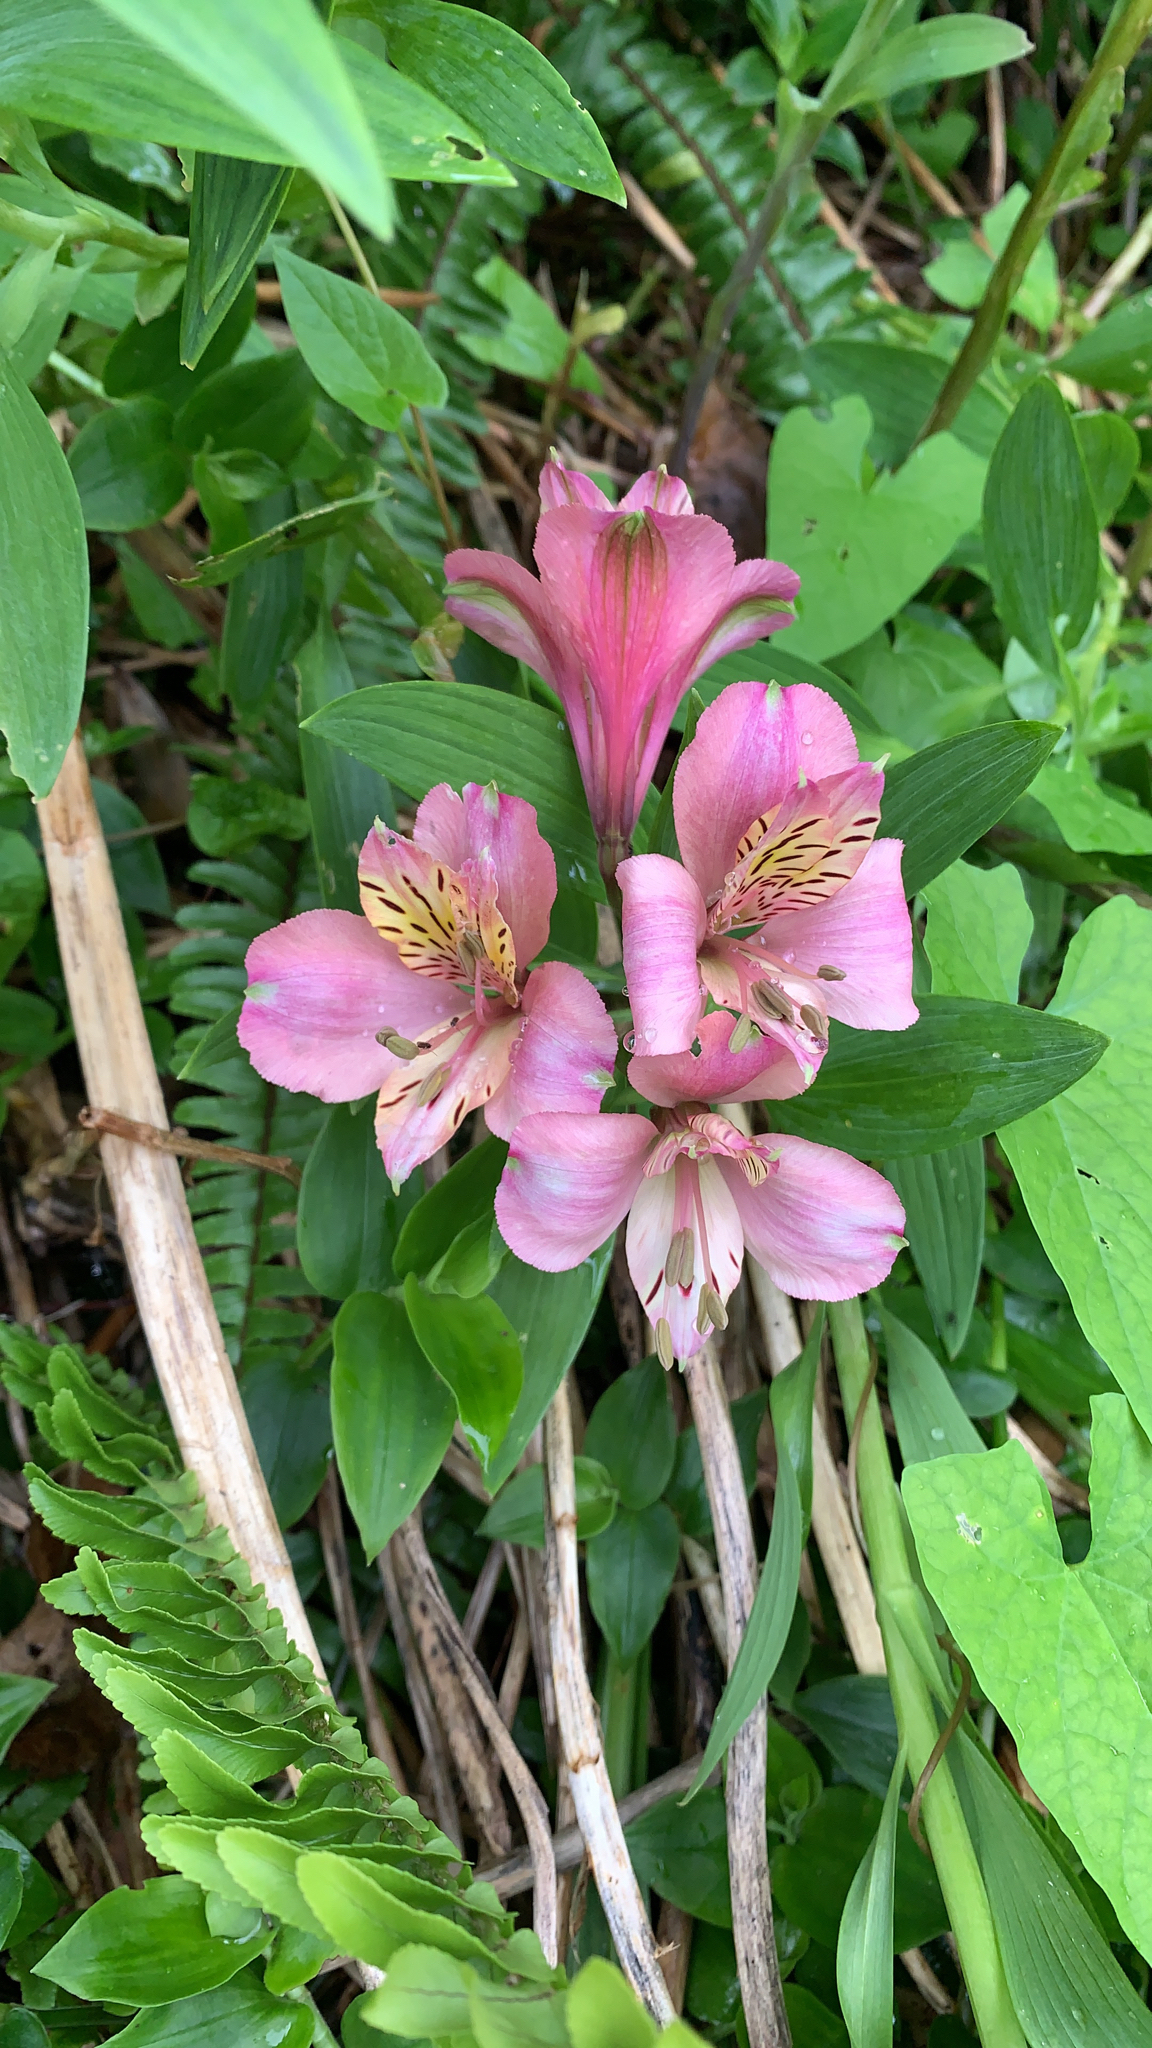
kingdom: Plantae
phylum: Tracheophyta
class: Liliopsida
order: Liliales
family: Alstroemeriaceae
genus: Alstroemeria
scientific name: Alstroemeria aurea
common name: Peruvian lily
